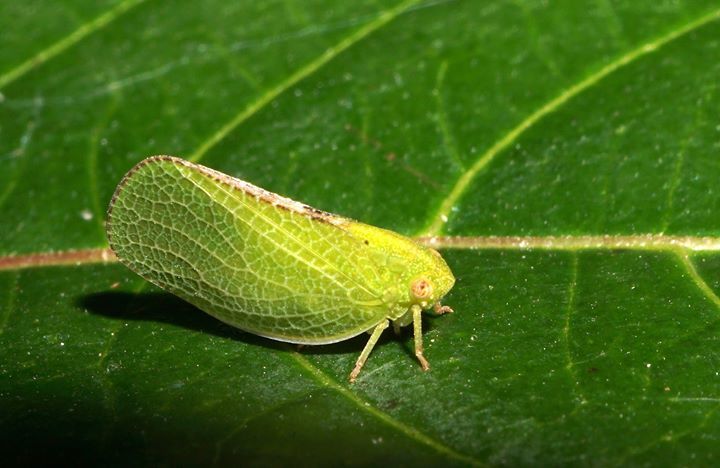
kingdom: Animalia
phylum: Arthropoda
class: Insecta
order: Hemiptera
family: Acanaloniidae
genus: Acanalonia
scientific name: Acanalonia conica
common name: Green cone-headed planthopper
